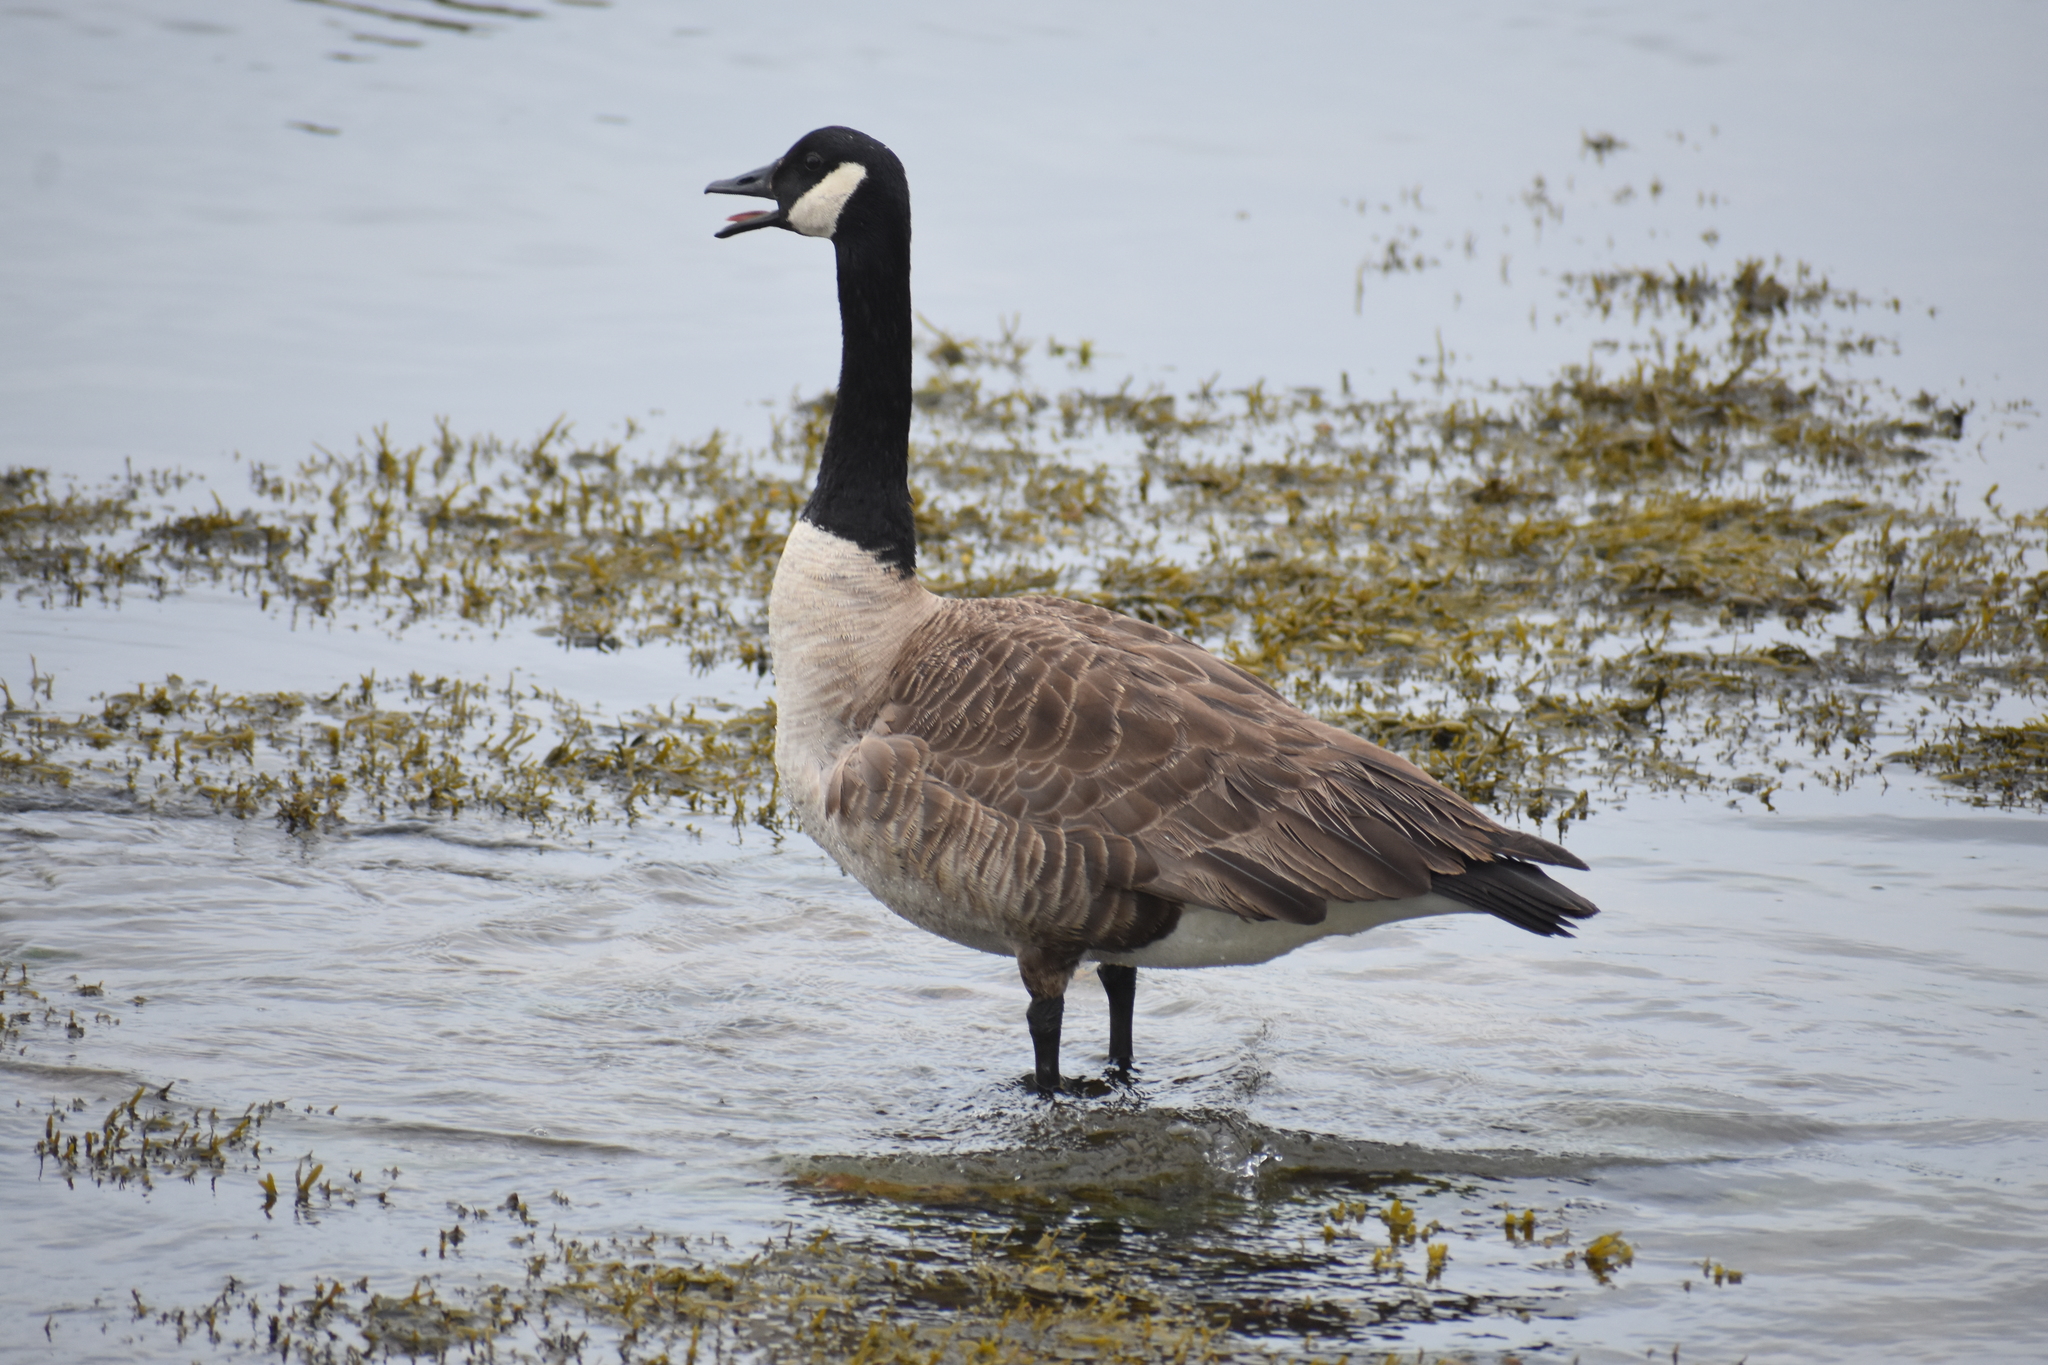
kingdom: Animalia
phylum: Chordata
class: Aves
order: Anseriformes
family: Anatidae
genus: Branta
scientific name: Branta canadensis
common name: Canada goose
